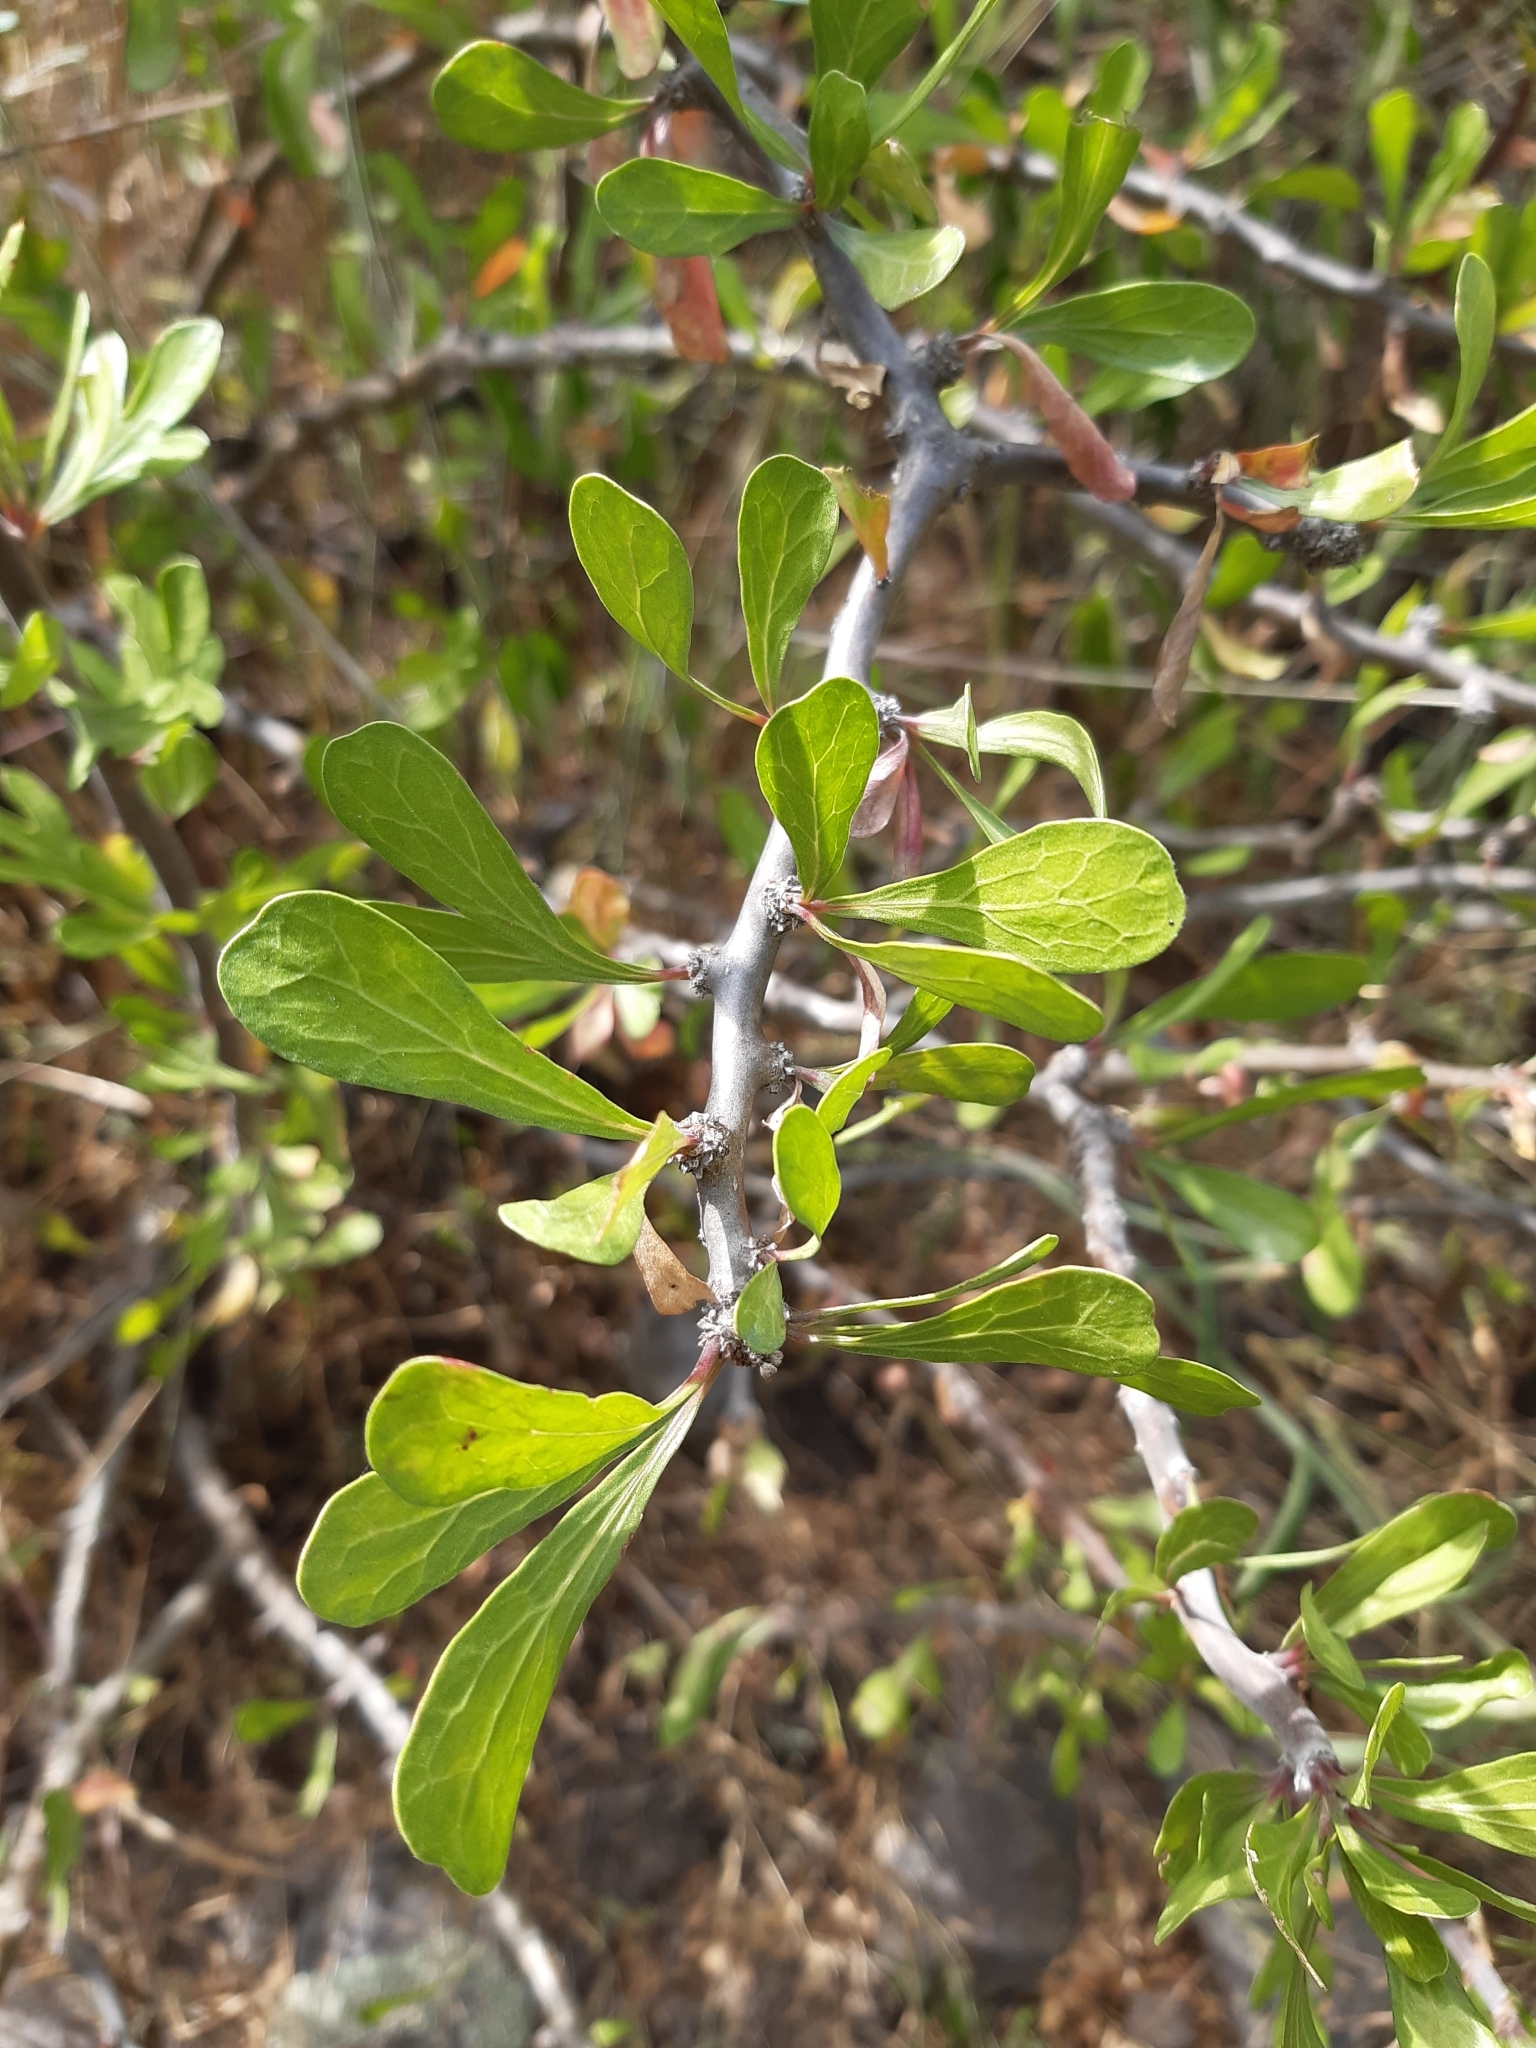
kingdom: Plantae
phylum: Tracheophyta
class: Magnoliopsida
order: Malpighiales
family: Euphorbiaceae
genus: Jatropha
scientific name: Jatropha dioica
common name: Leatherstem
